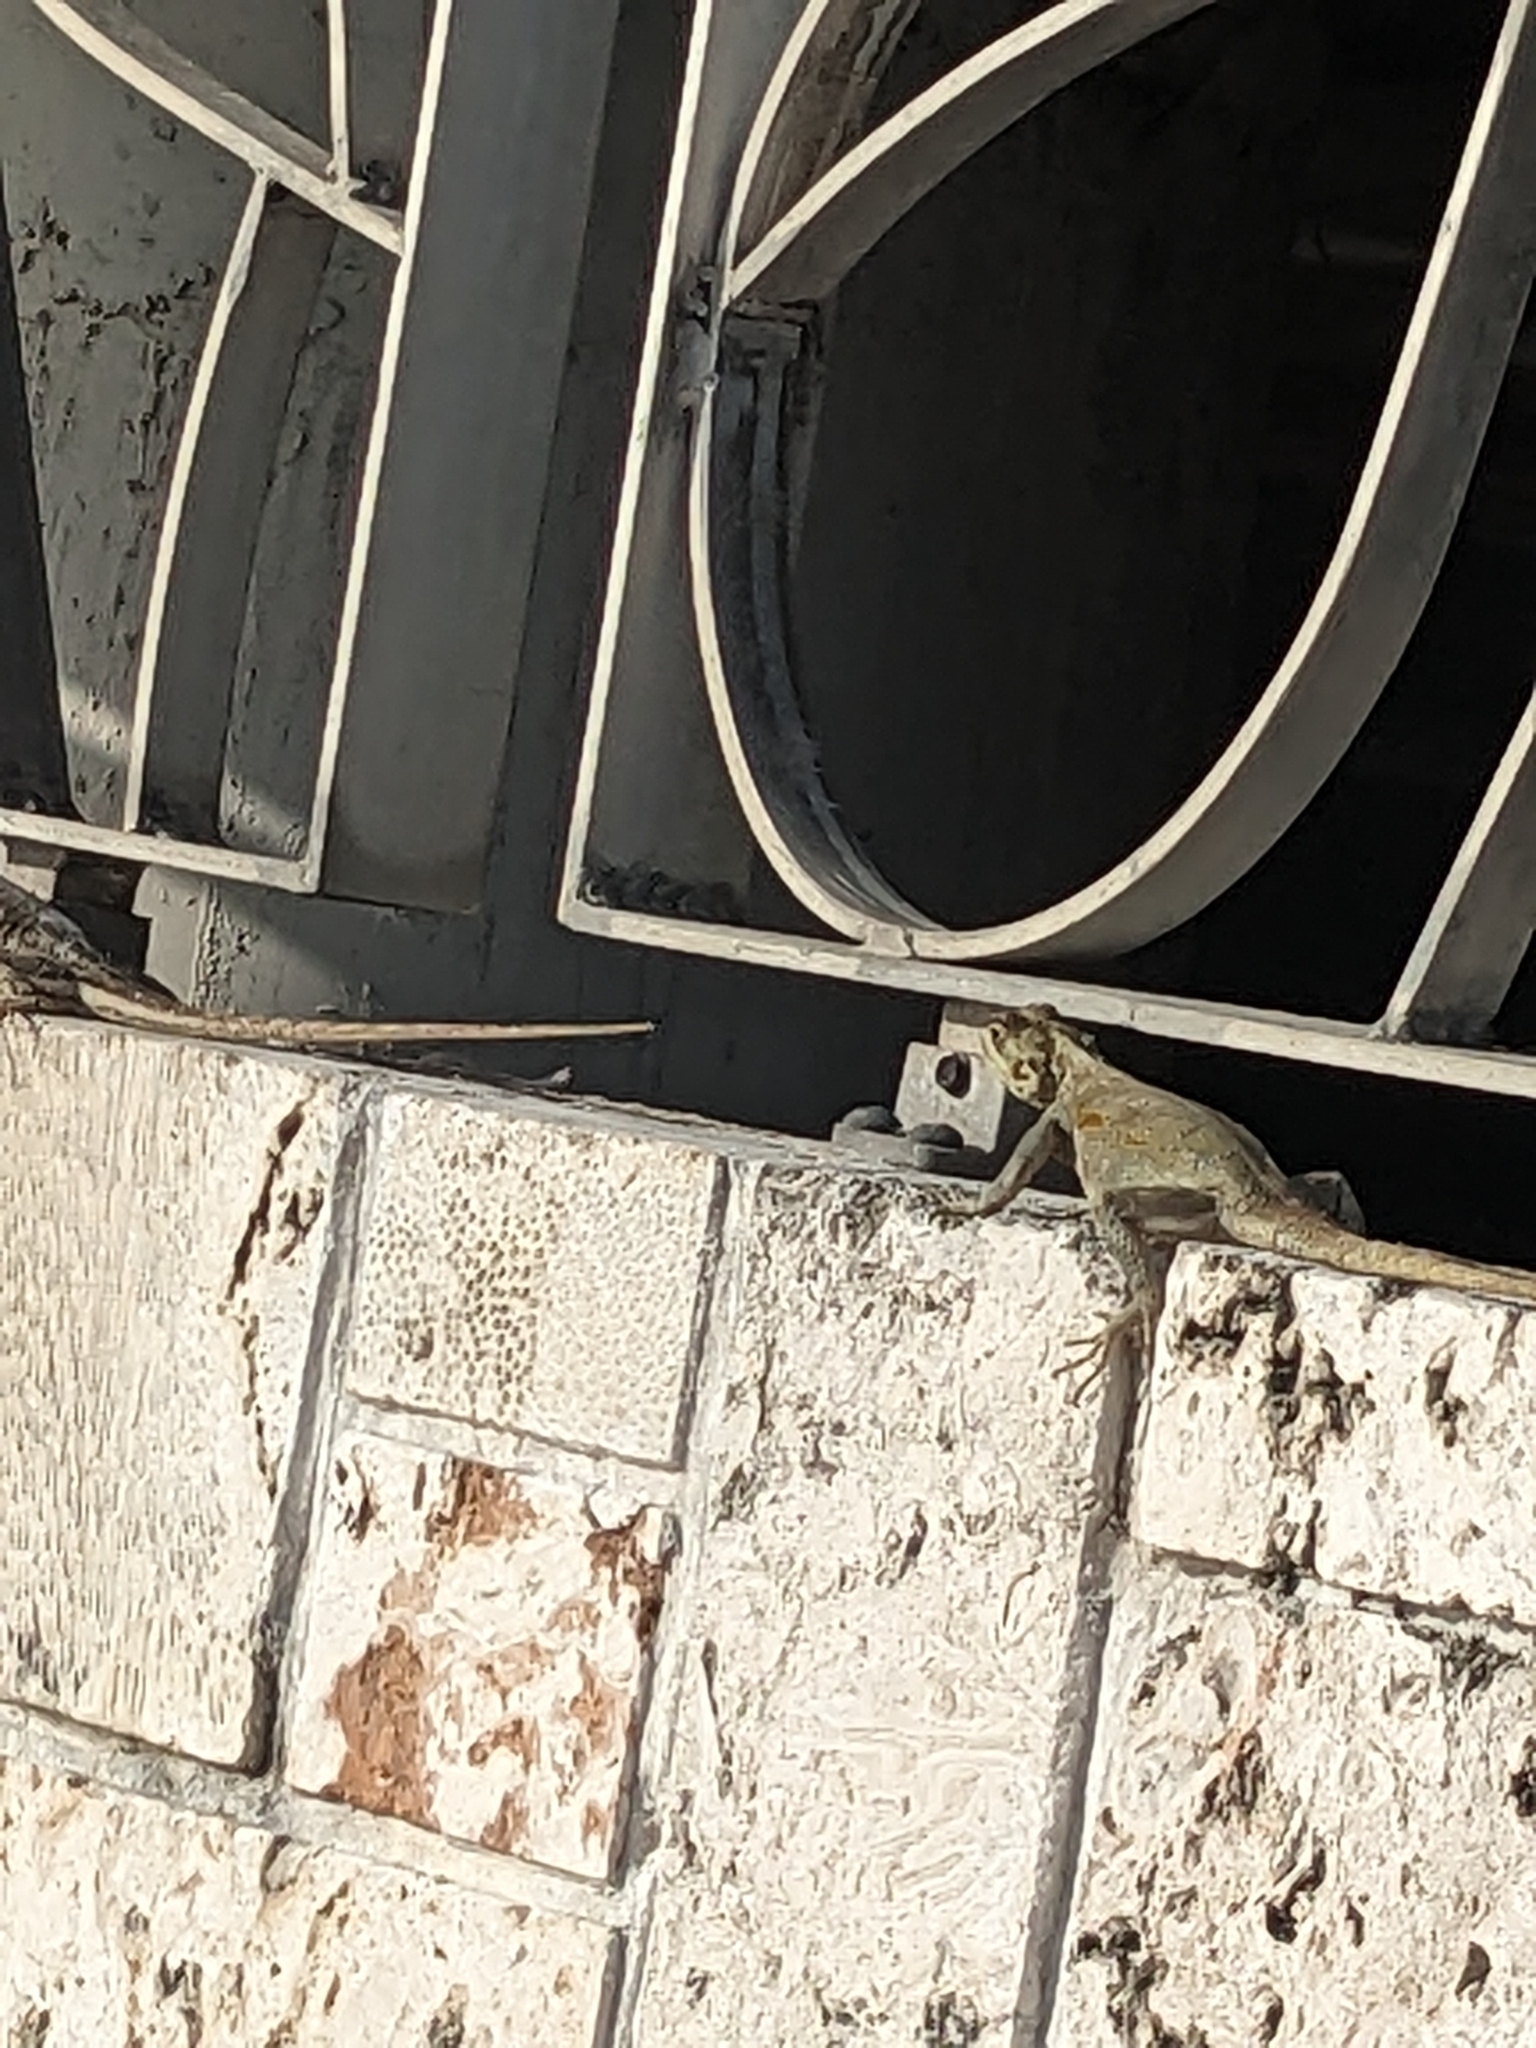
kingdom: Animalia
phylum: Chordata
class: Squamata
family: Agamidae
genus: Agama
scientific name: Agama picticauda
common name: Red-headed agama
